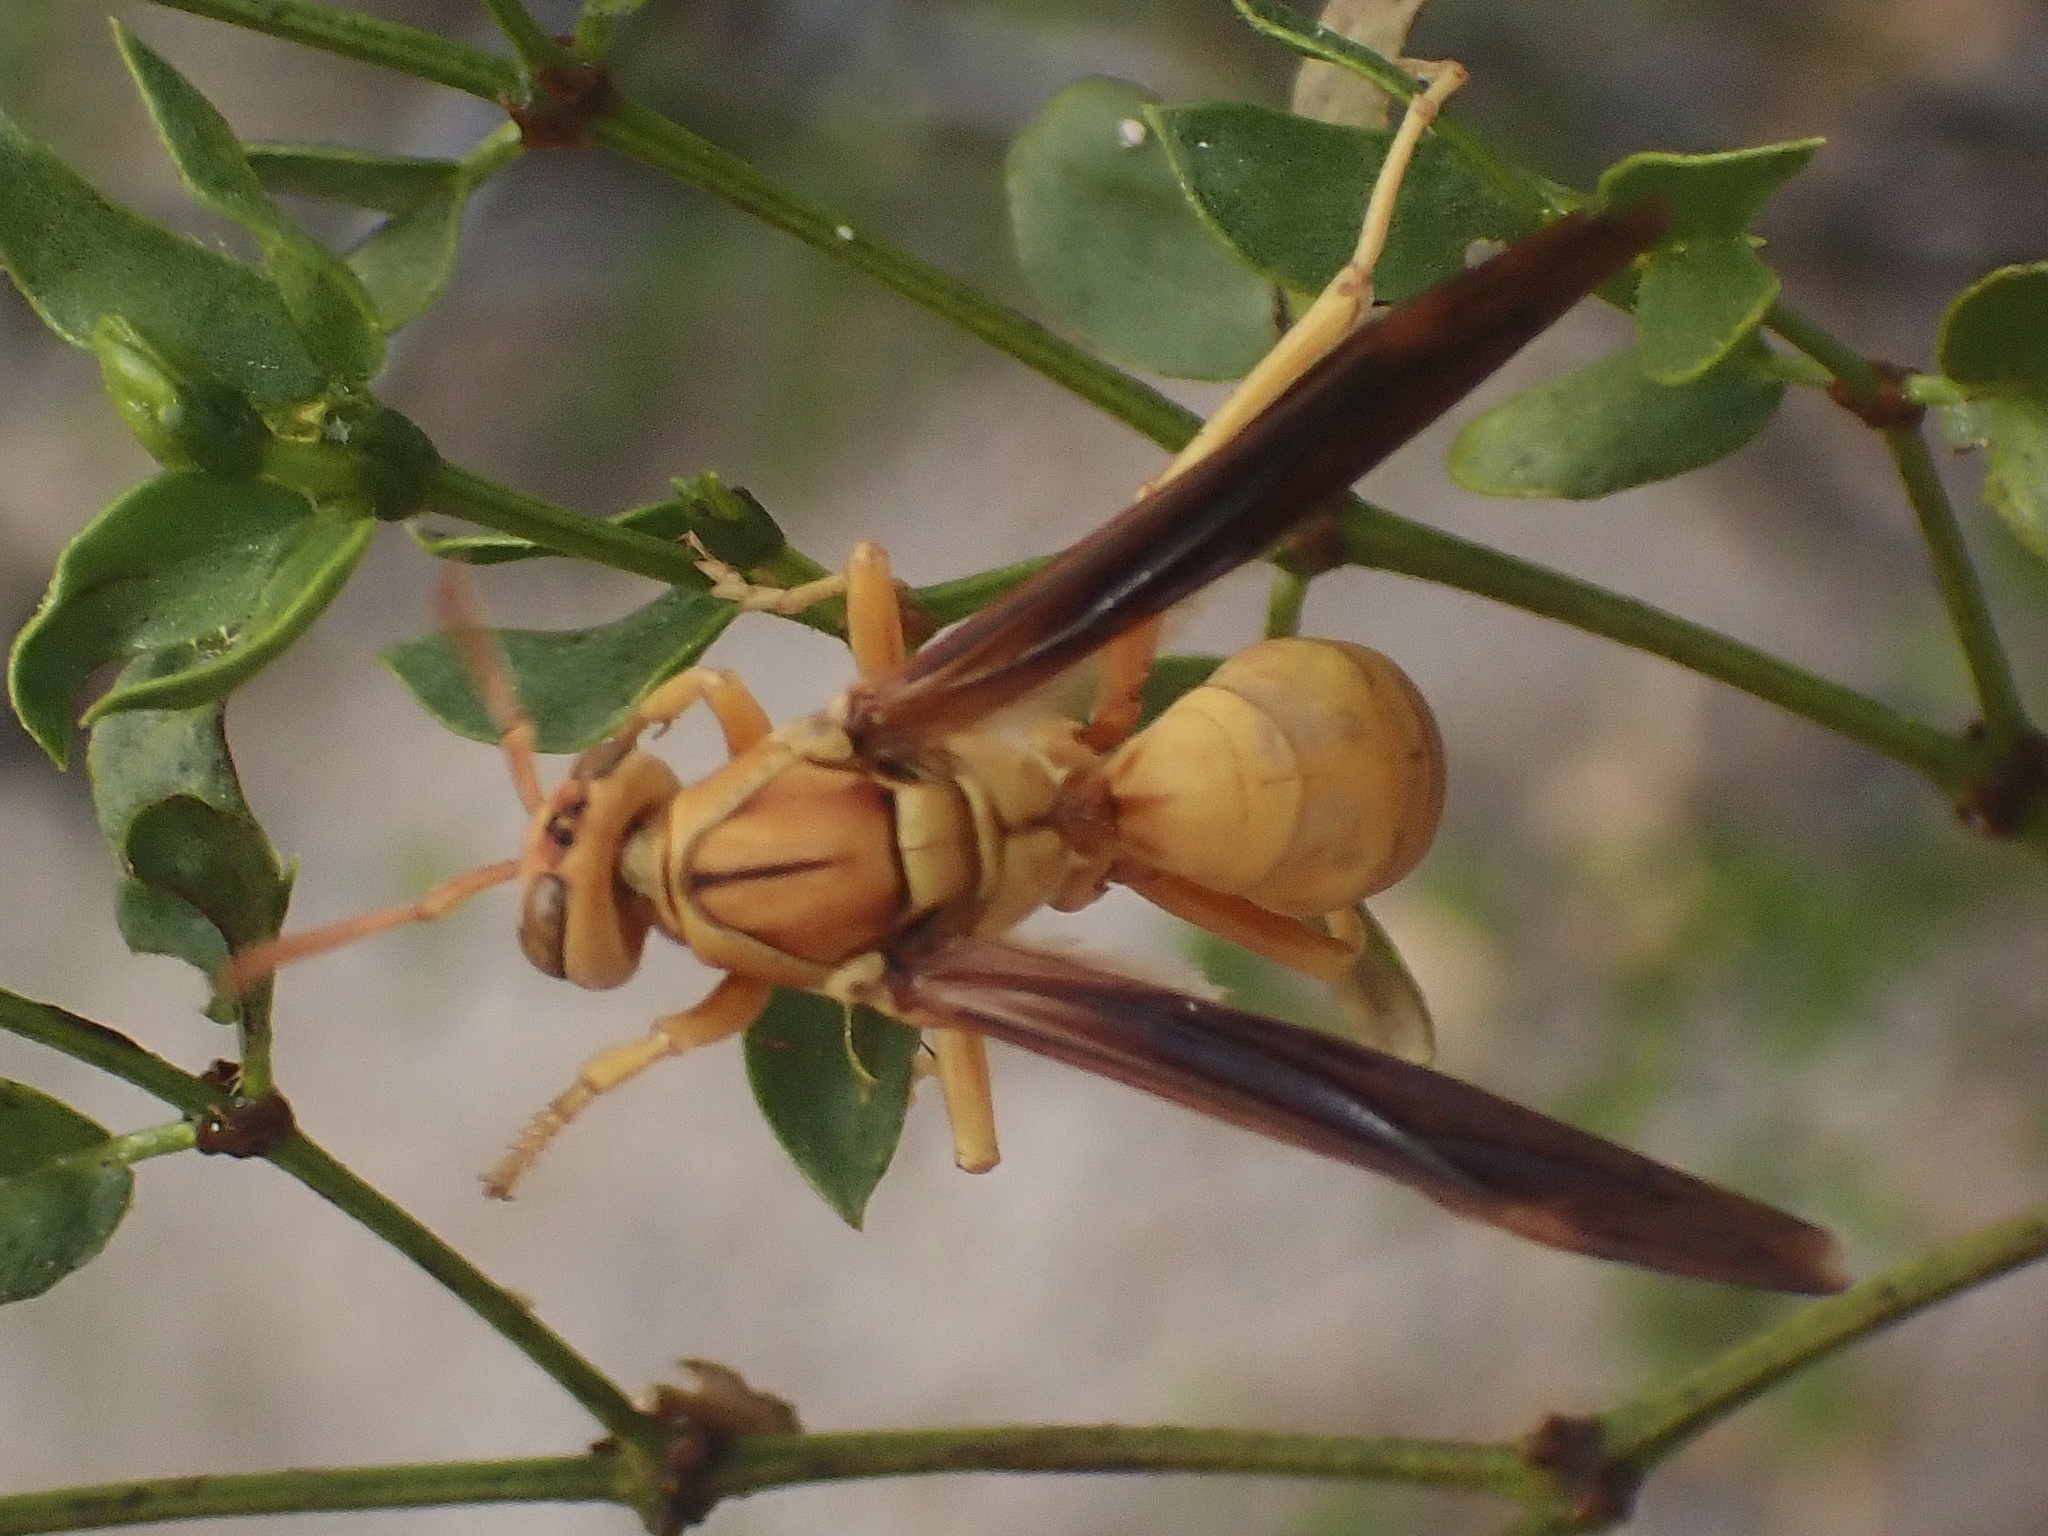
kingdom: Animalia
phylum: Arthropoda
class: Insecta
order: Hymenoptera
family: Eumenidae
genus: Polistes
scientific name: Polistes flavus
